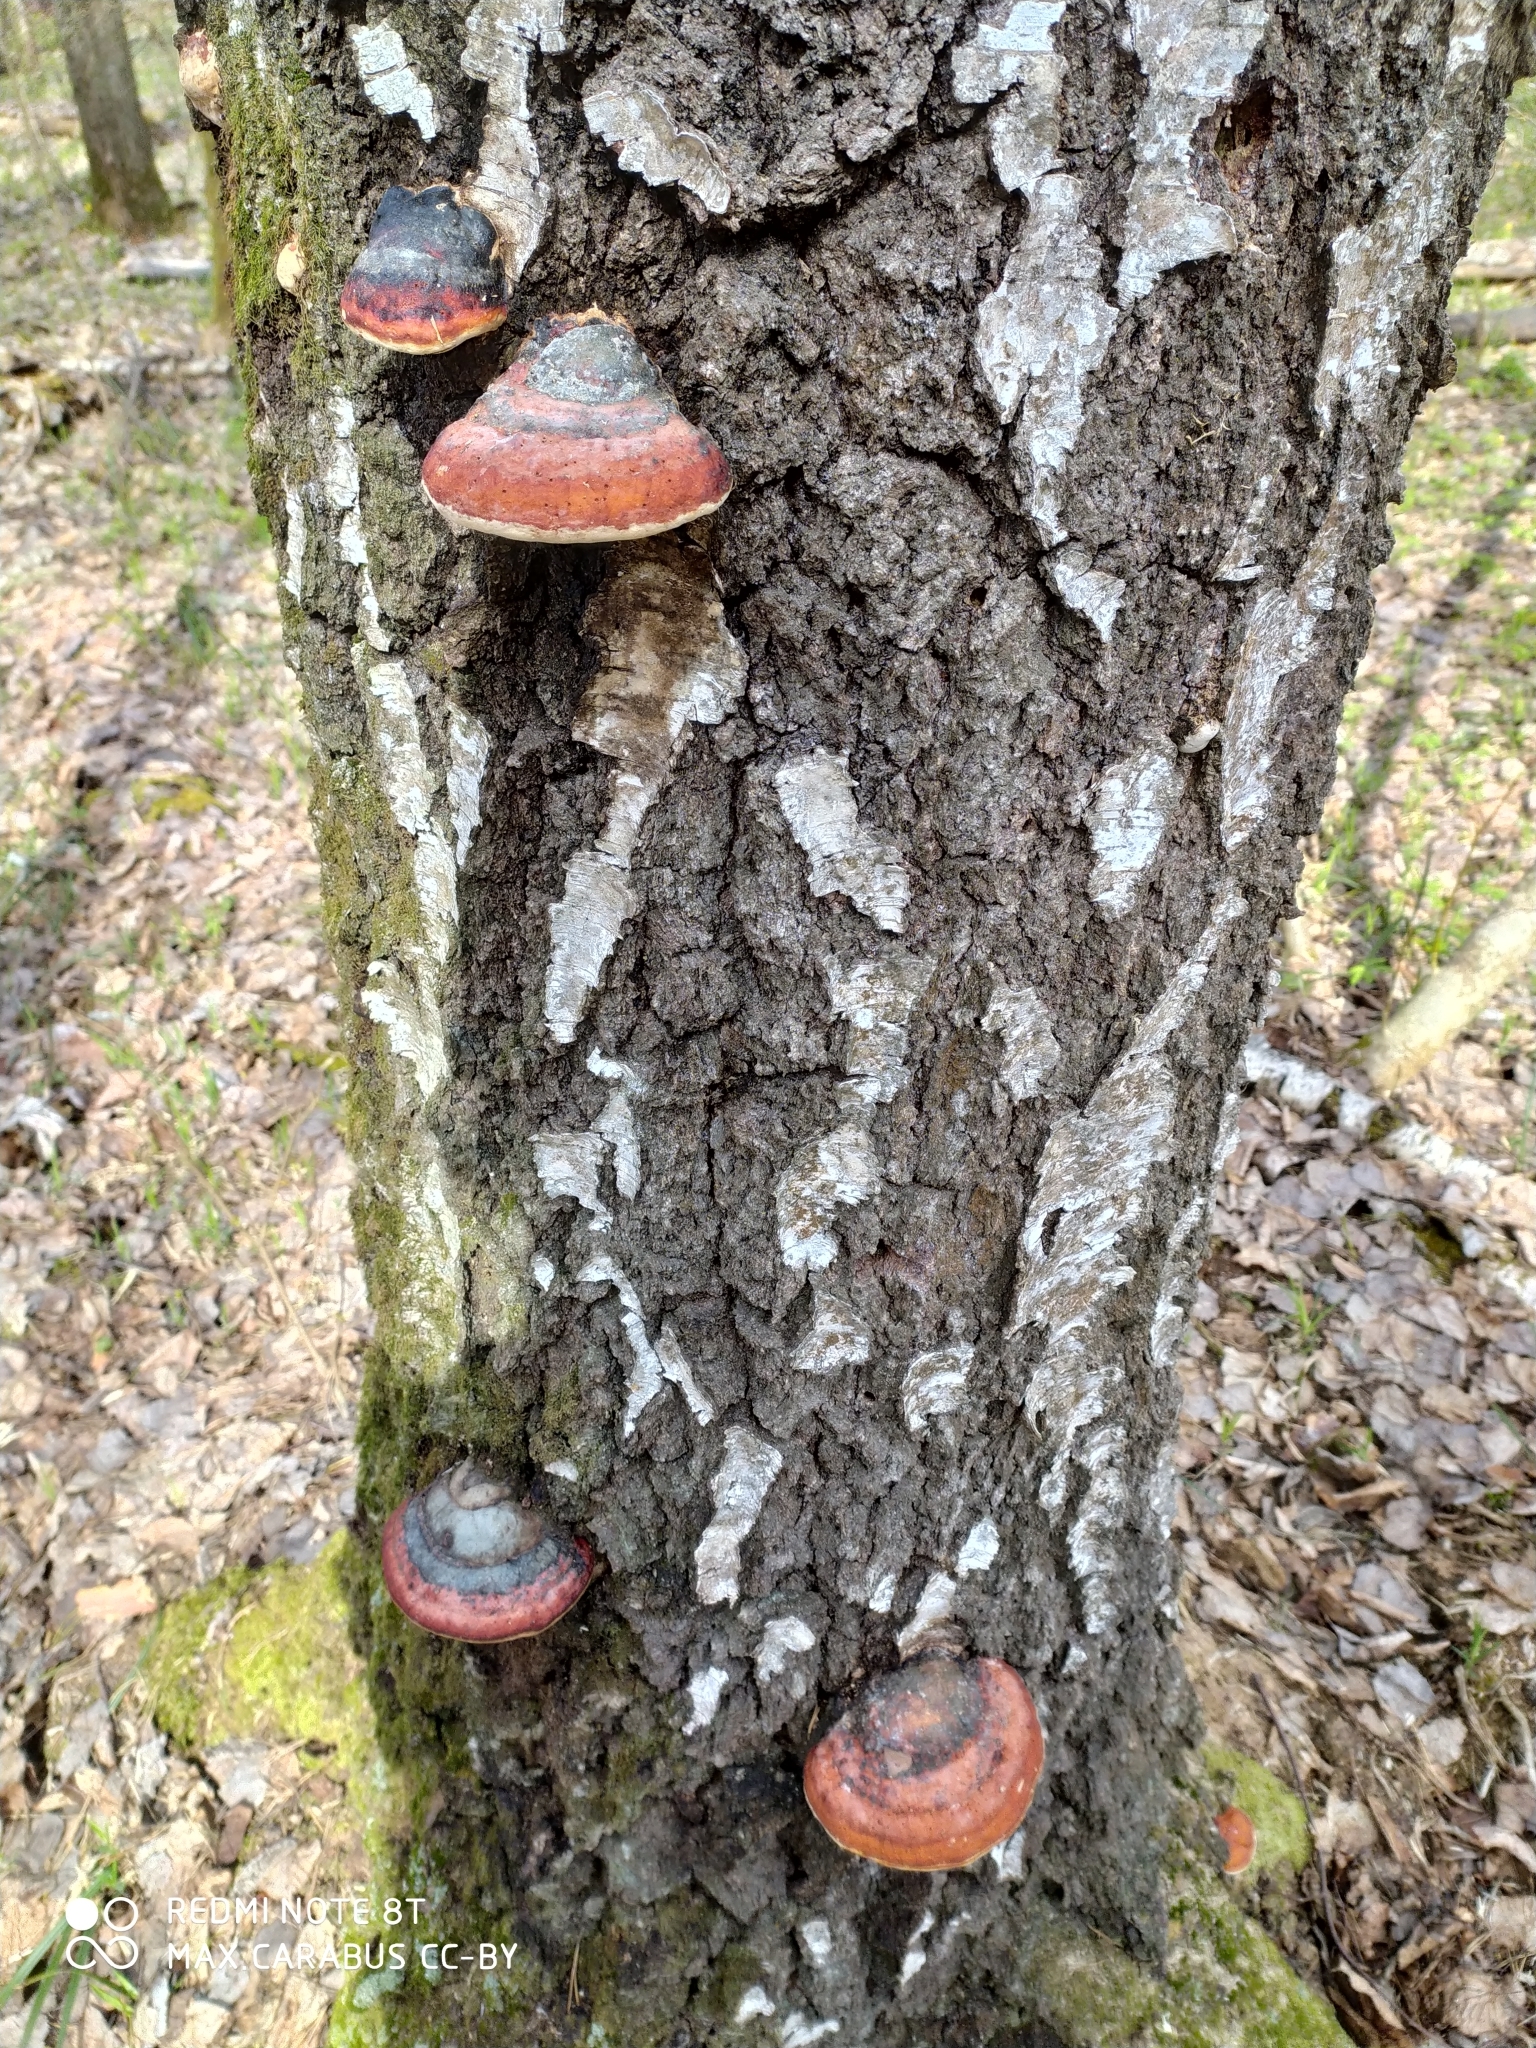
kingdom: Fungi
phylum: Basidiomycota
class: Agaricomycetes
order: Polyporales
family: Fomitopsidaceae
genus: Fomitopsis
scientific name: Fomitopsis pinicola
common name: Red-belted bracket
